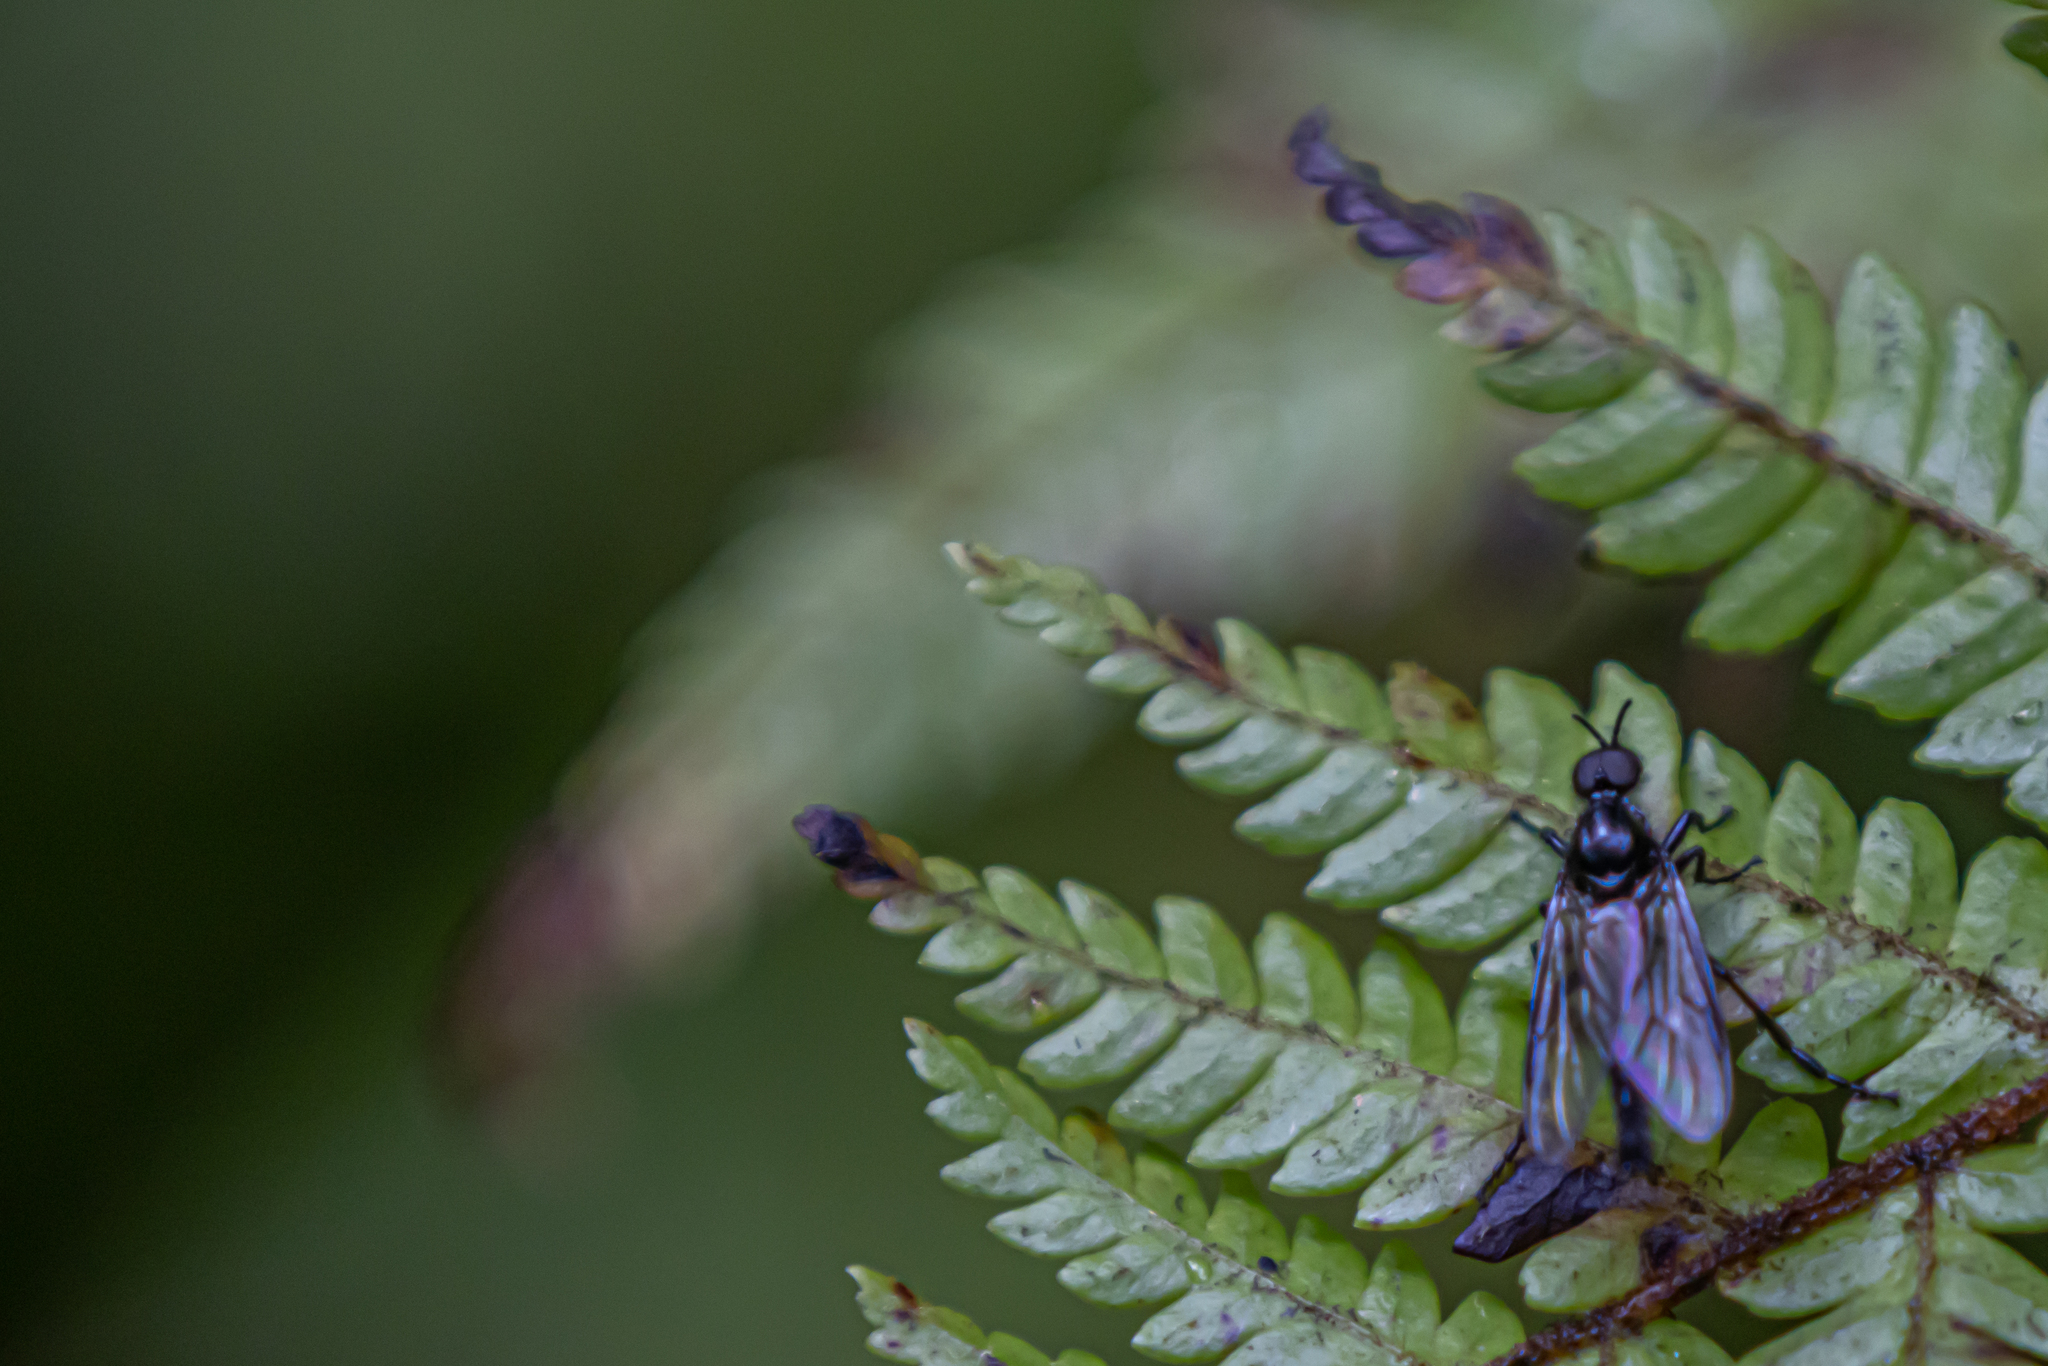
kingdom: Animalia
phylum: Arthropoda
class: Insecta
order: Diptera
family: Bibionidae
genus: Dilophus
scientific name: Dilophus nigrostigma
